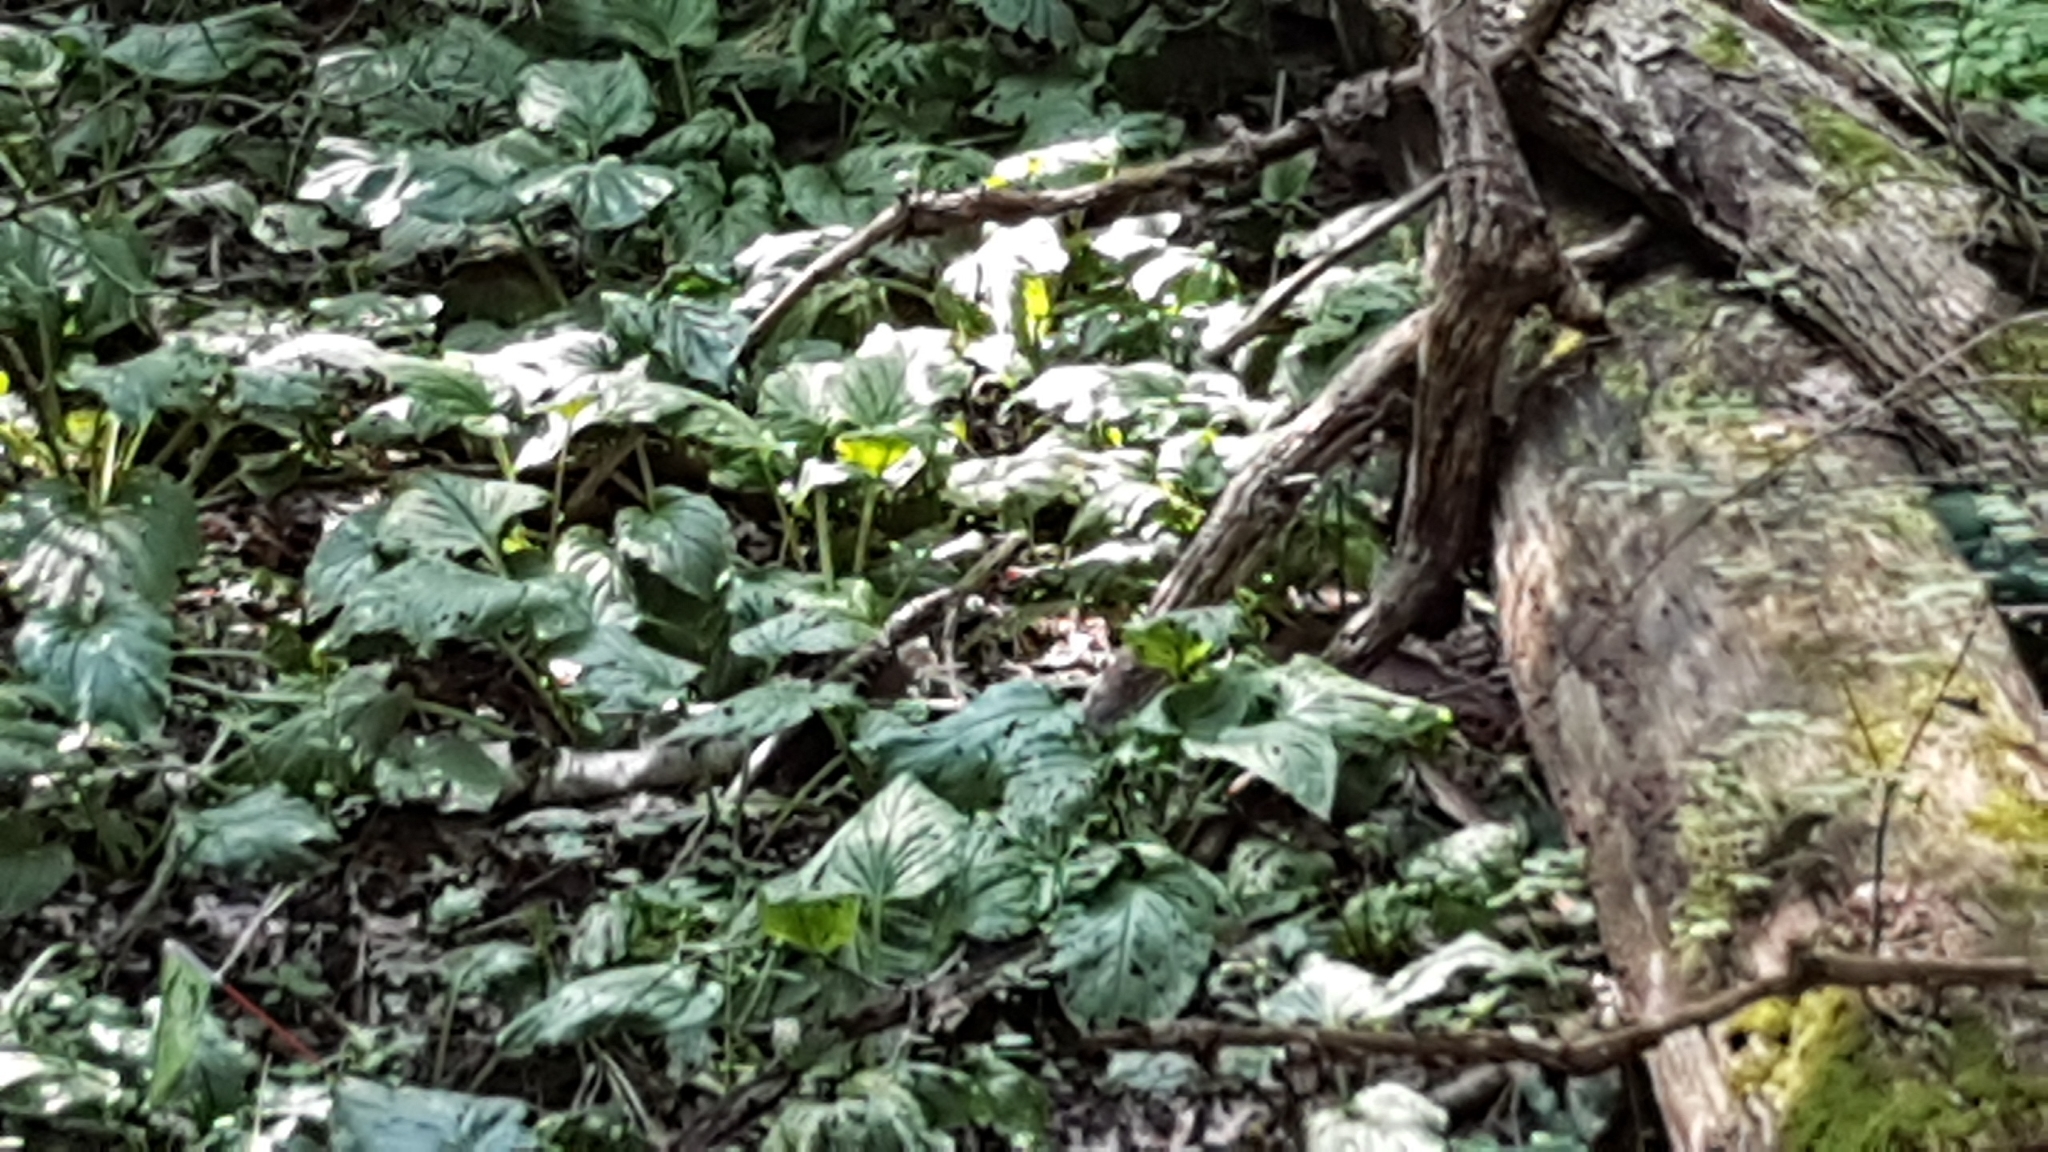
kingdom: Plantae
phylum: Tracheophyta
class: Liliopsida
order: Alismatales
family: Araceae
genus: Symplocarpus
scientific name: Symplocarpus foetidus
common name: Eastern skunk cabbage
